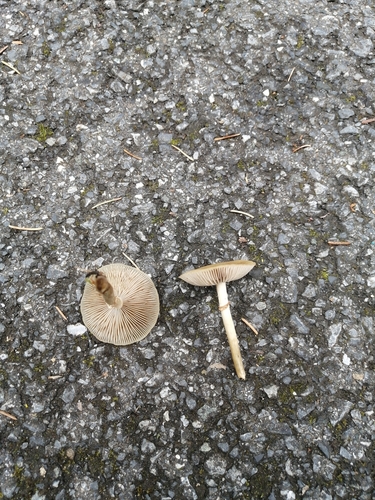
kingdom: Fungi
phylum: Basidiomycota
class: Agaricomycetes
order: Agaricales
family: Agaricaceae
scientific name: Agaricaceae
